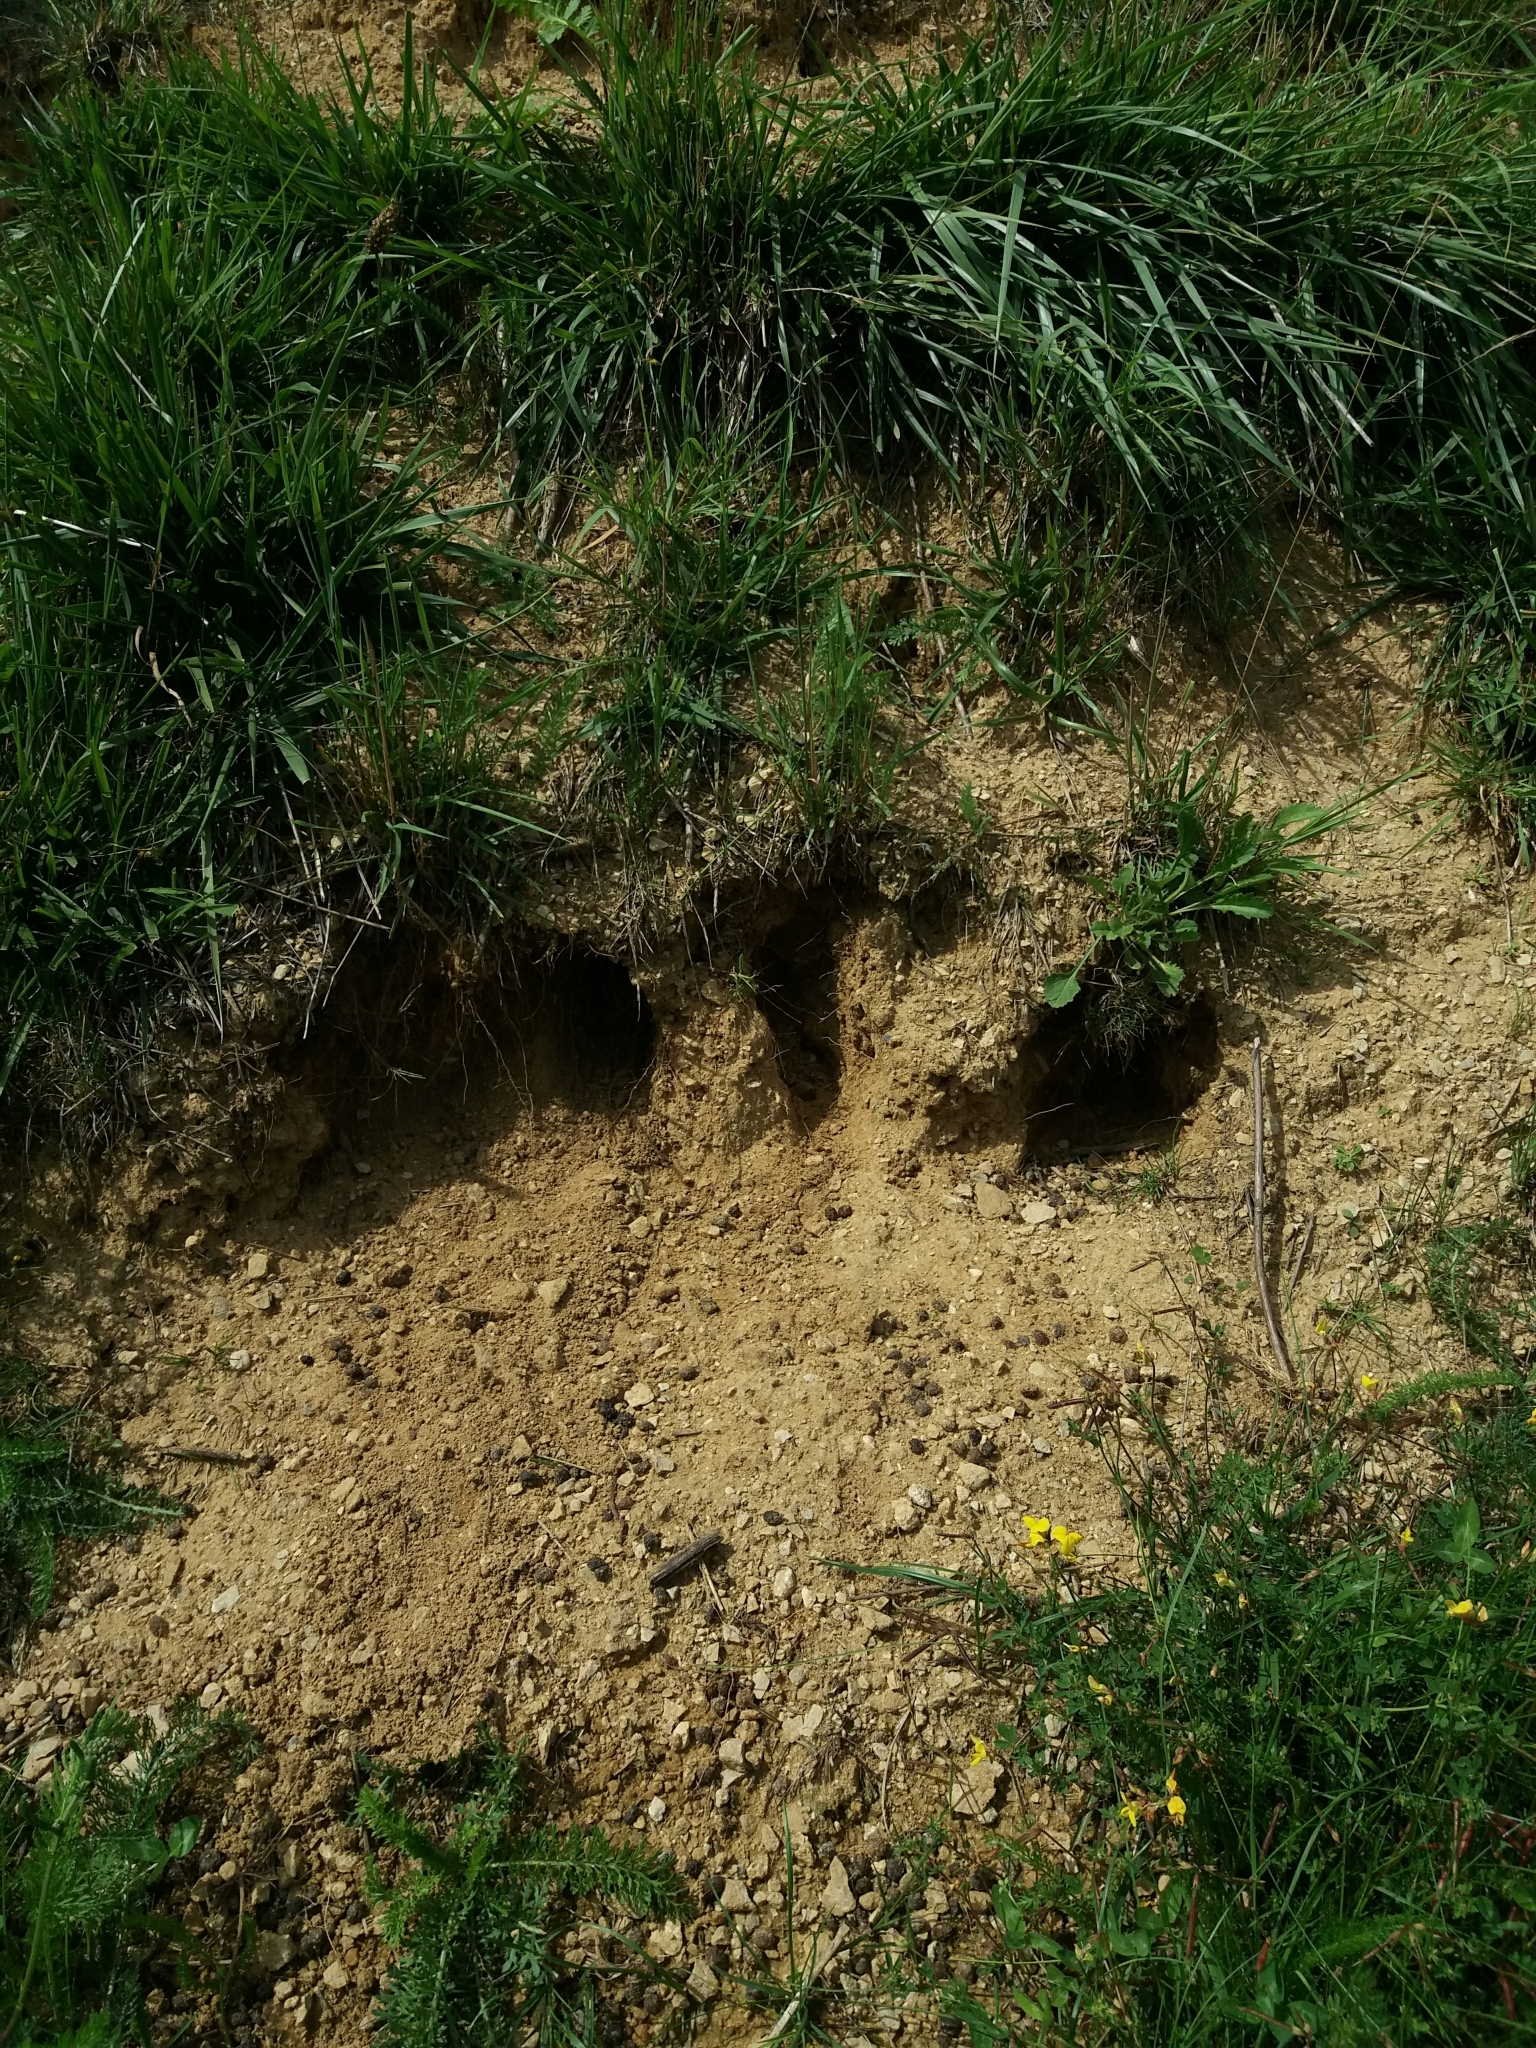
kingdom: Animalia
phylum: Chordata
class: Mammalia
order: Lagomorpha
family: Leporidae
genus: Oryctolagus
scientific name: Oryctolagus cuniculus
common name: European rabbit
